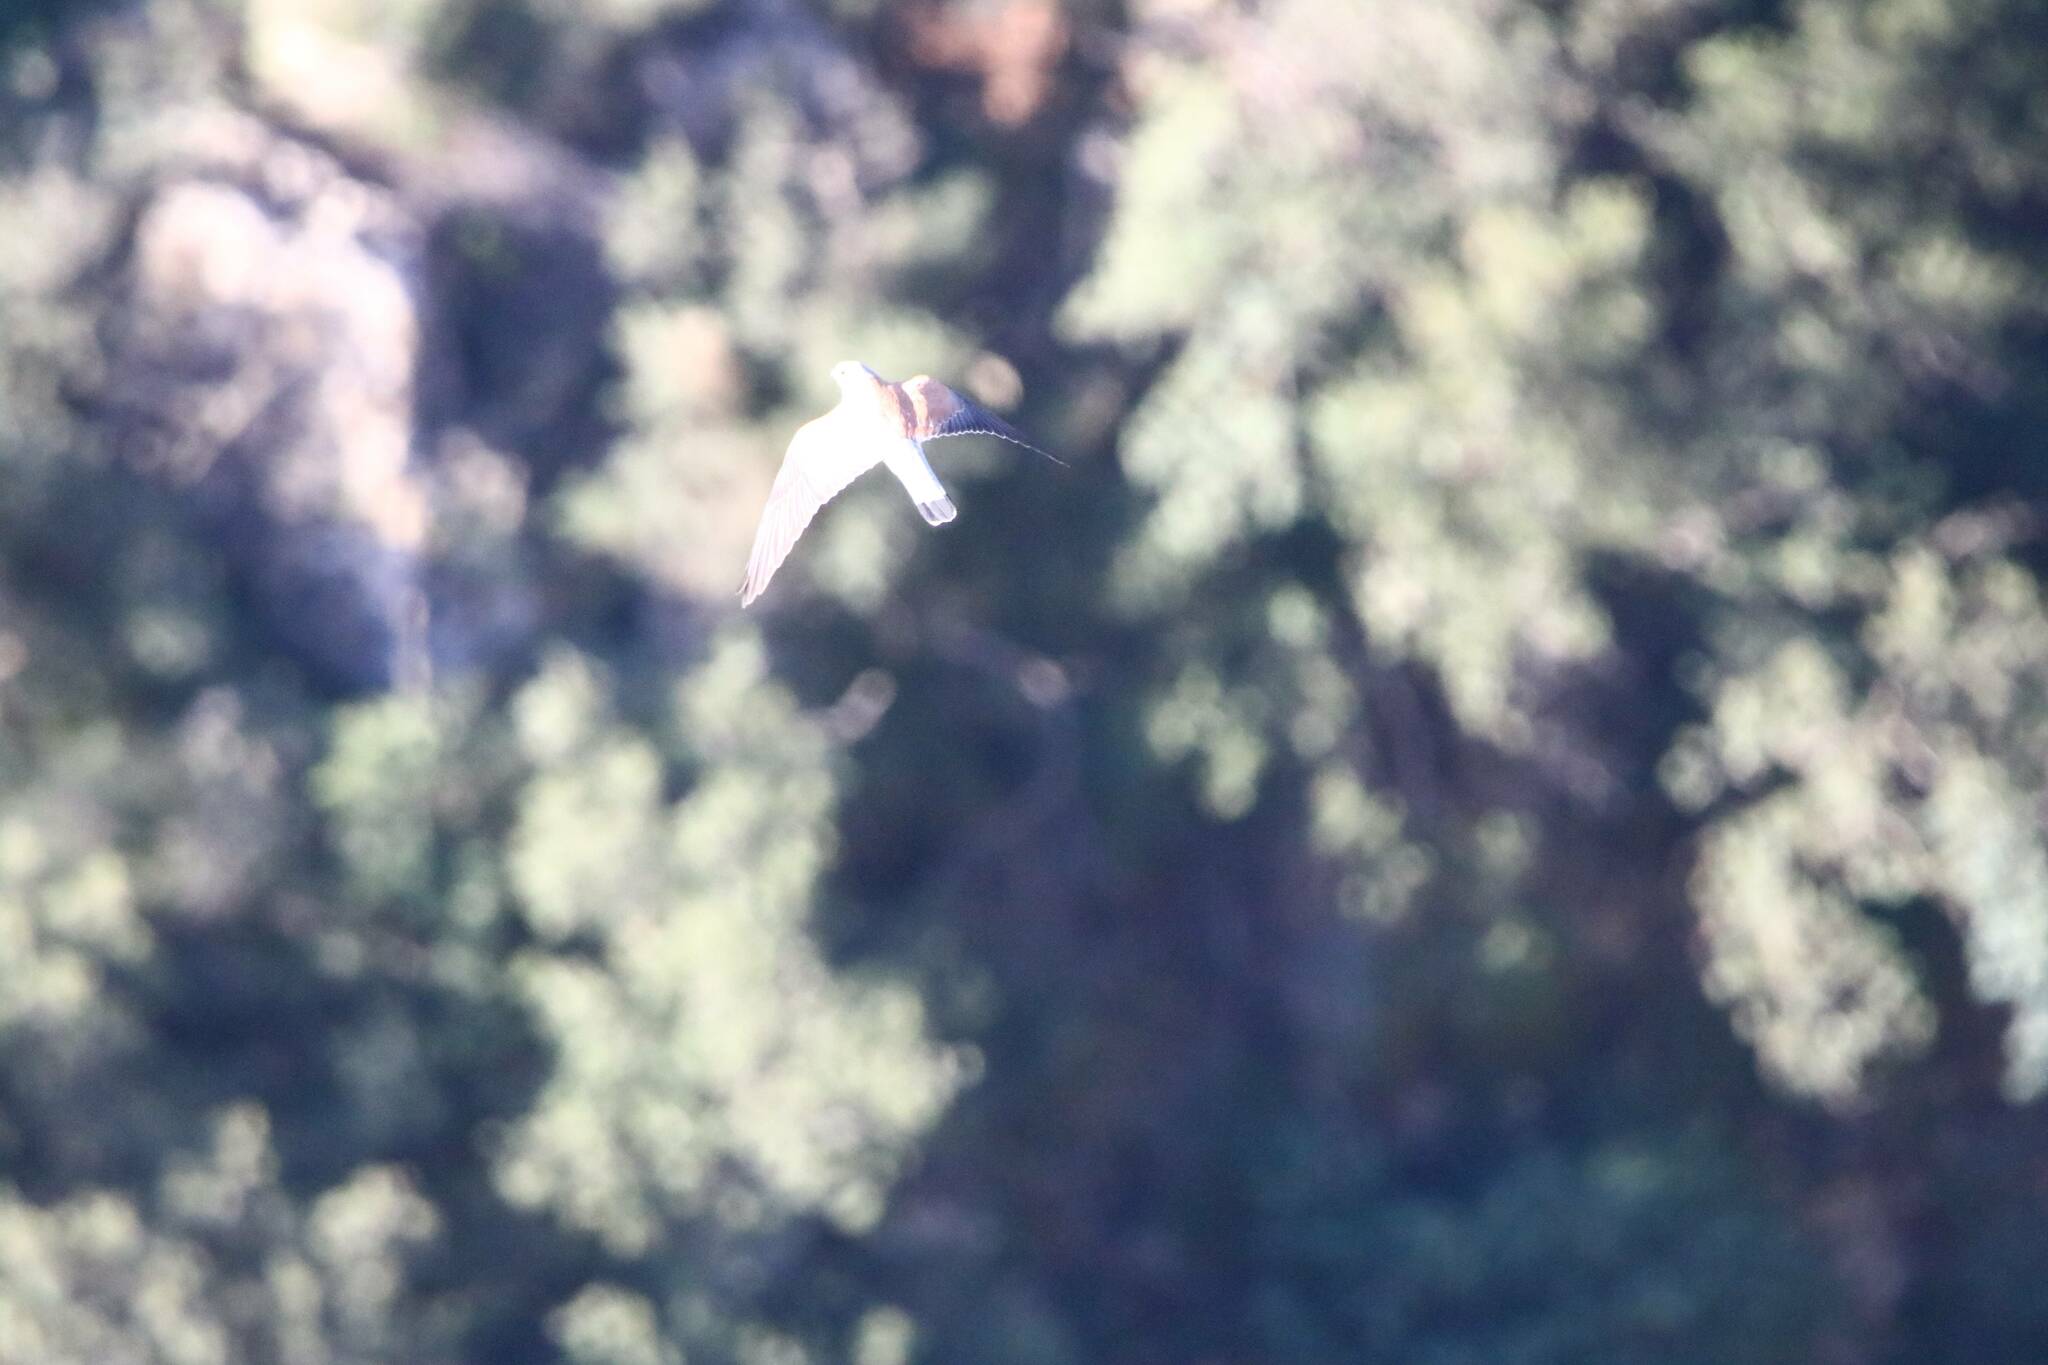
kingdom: Animalia
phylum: Chordata
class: Aves
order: Falconiformes
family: Falconidae
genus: Falco
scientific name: Falco naumanni
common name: Lesser kestrel
